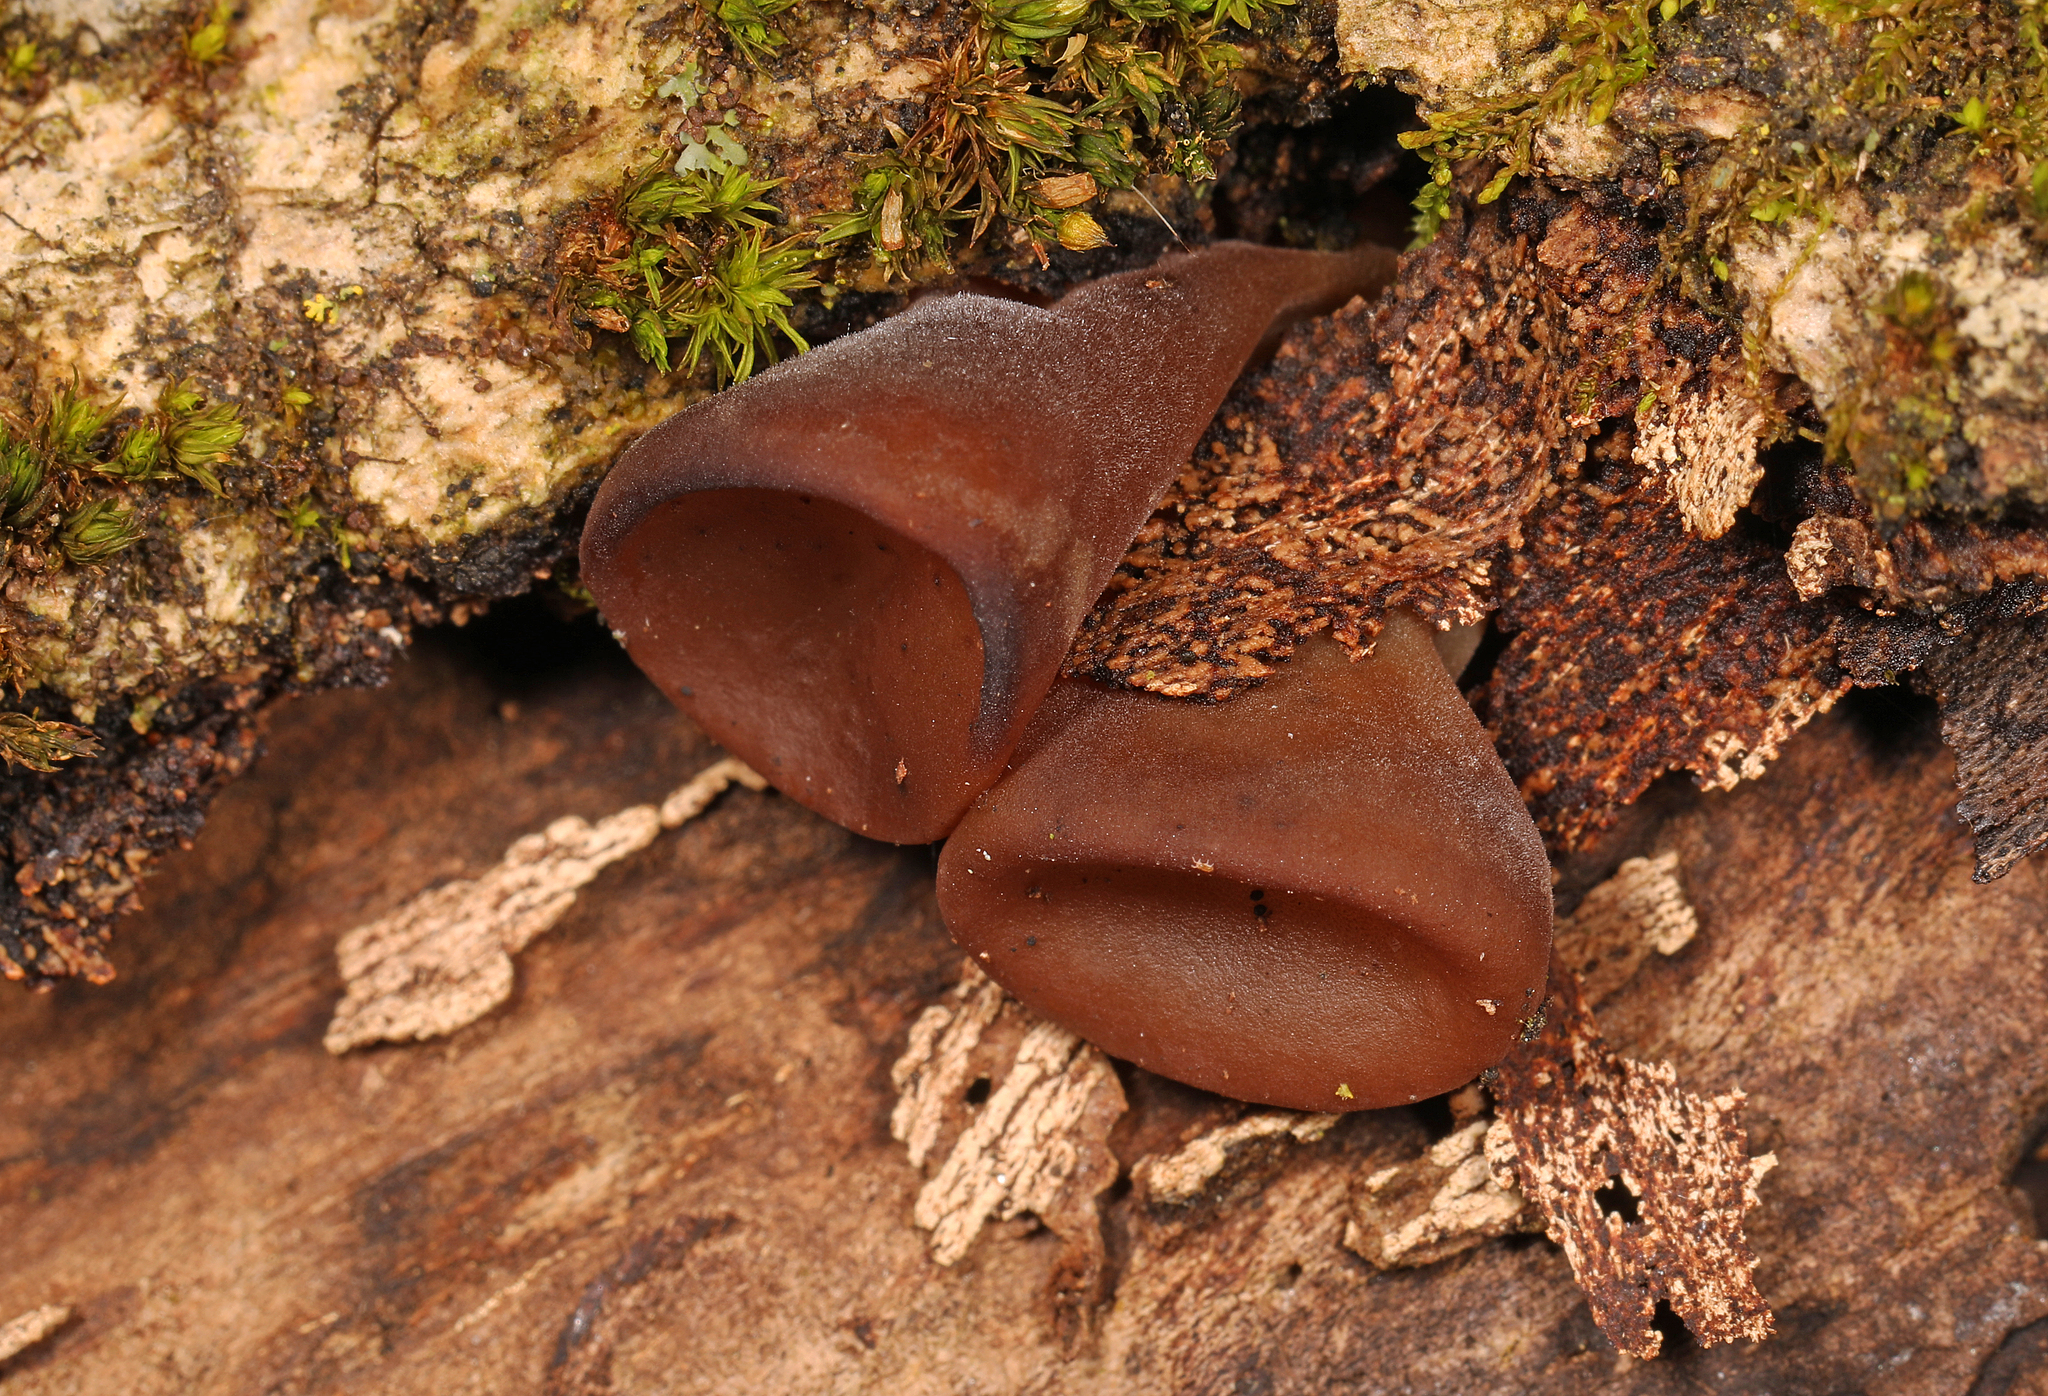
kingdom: Fungi
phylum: Ascomycota
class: Pezizomycetes
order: Pezizales
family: Pezizaceae
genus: Phylloscypha
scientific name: Phylloscypha phyllogena
